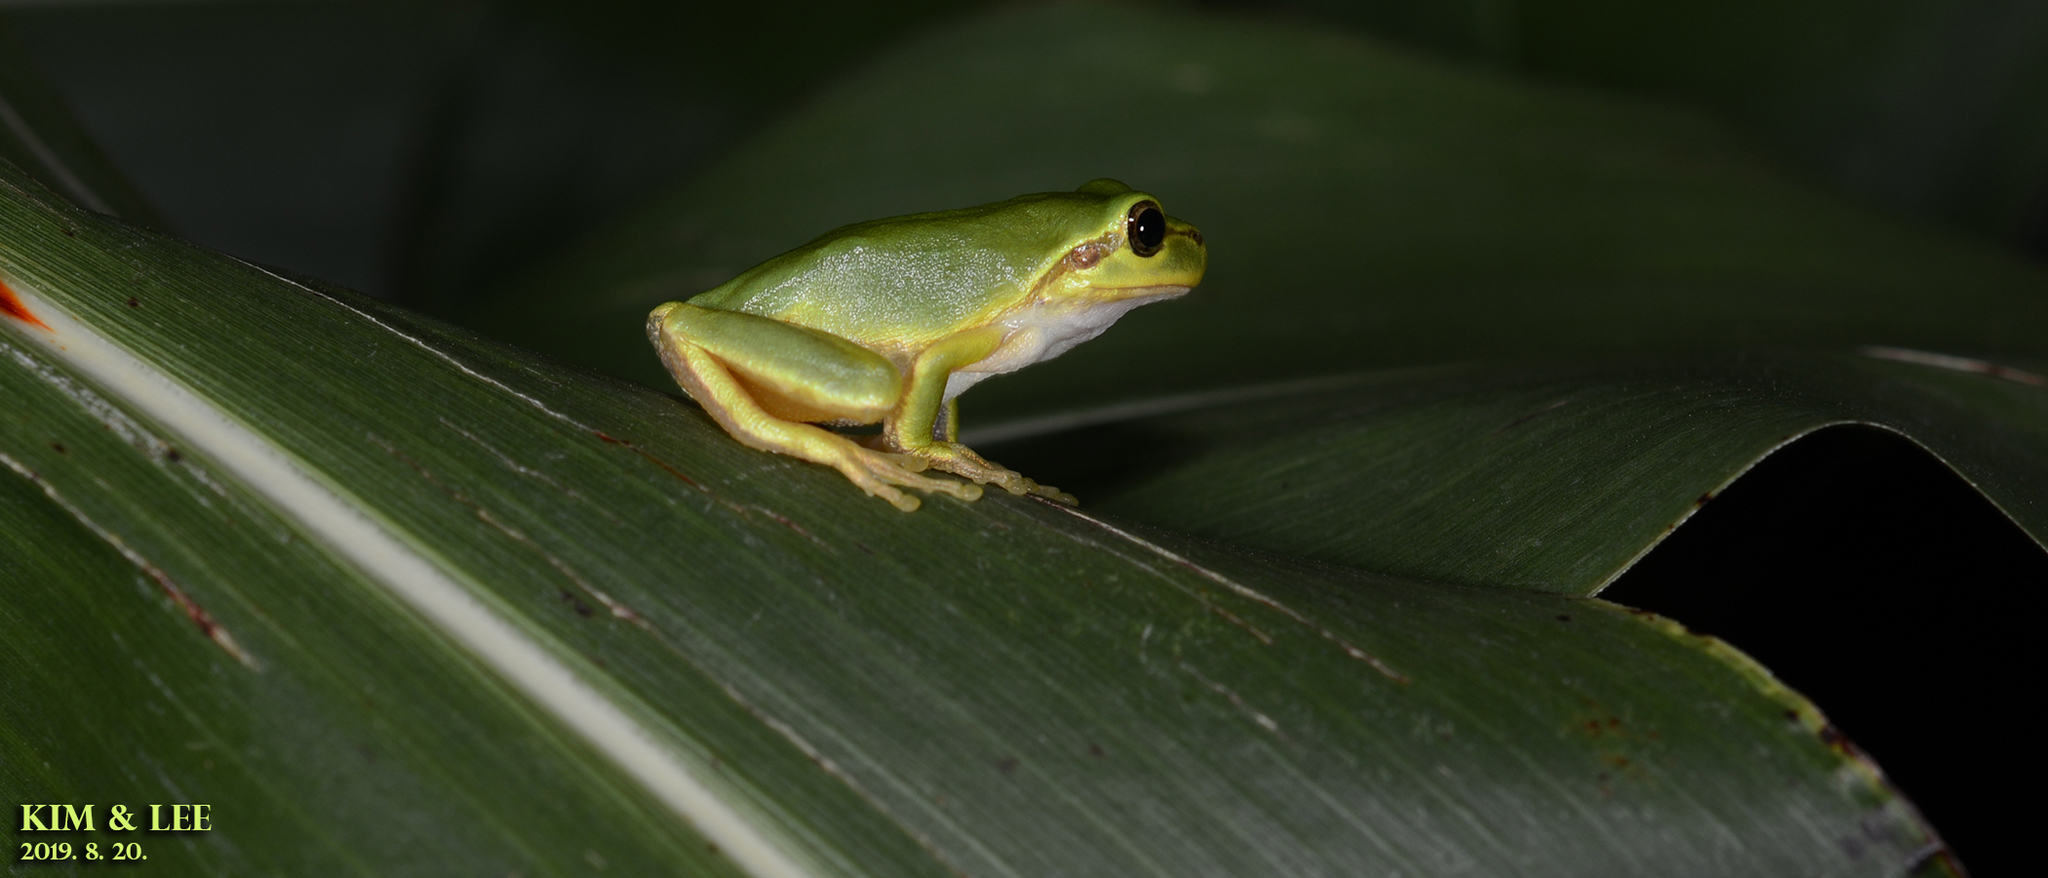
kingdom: Animalia
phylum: Chordata
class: Amphibia
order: Anura
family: Hylidae
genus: Dryophytes
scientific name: Dryophytes japonicus
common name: Japanese treefrog
